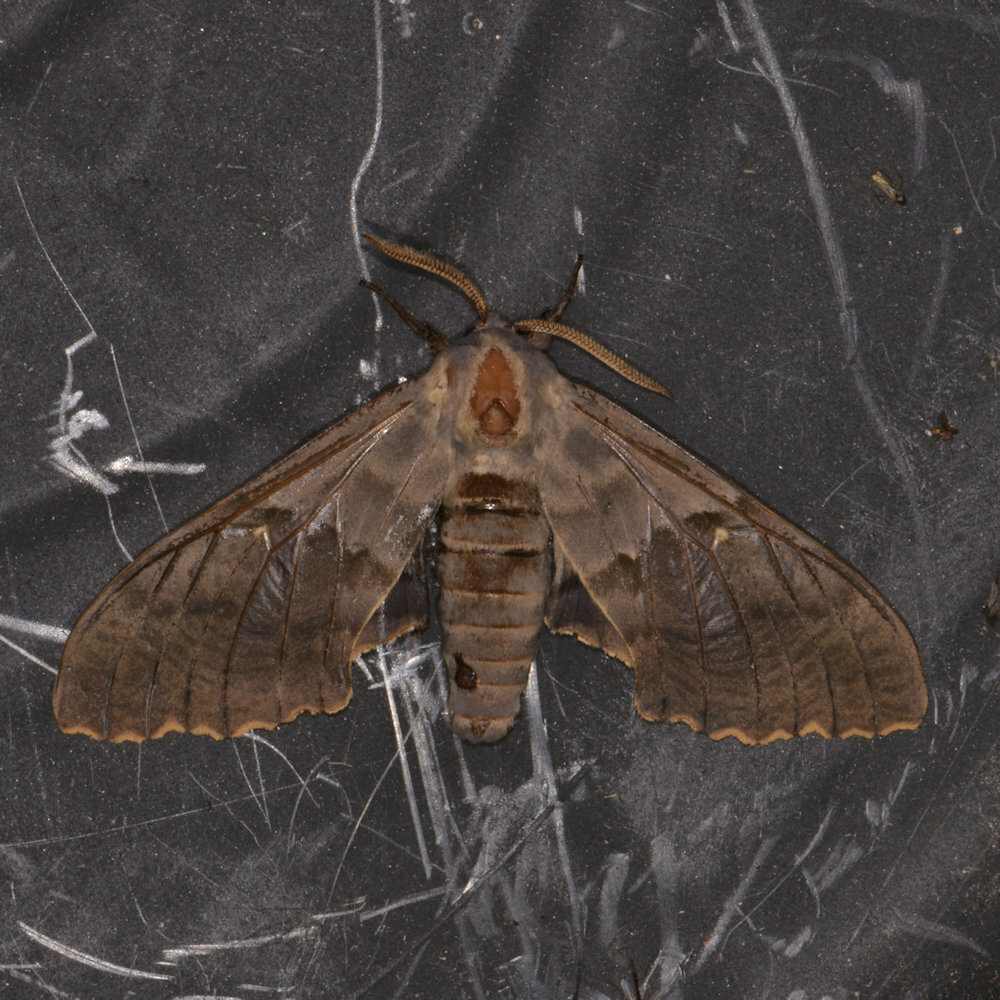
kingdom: Animalia
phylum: Arthropoda
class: Insecta
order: Lepidoptera
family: Sphingidae
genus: Pachysphinx
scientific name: Pachysphinx modesta
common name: Big poplar sphinx
